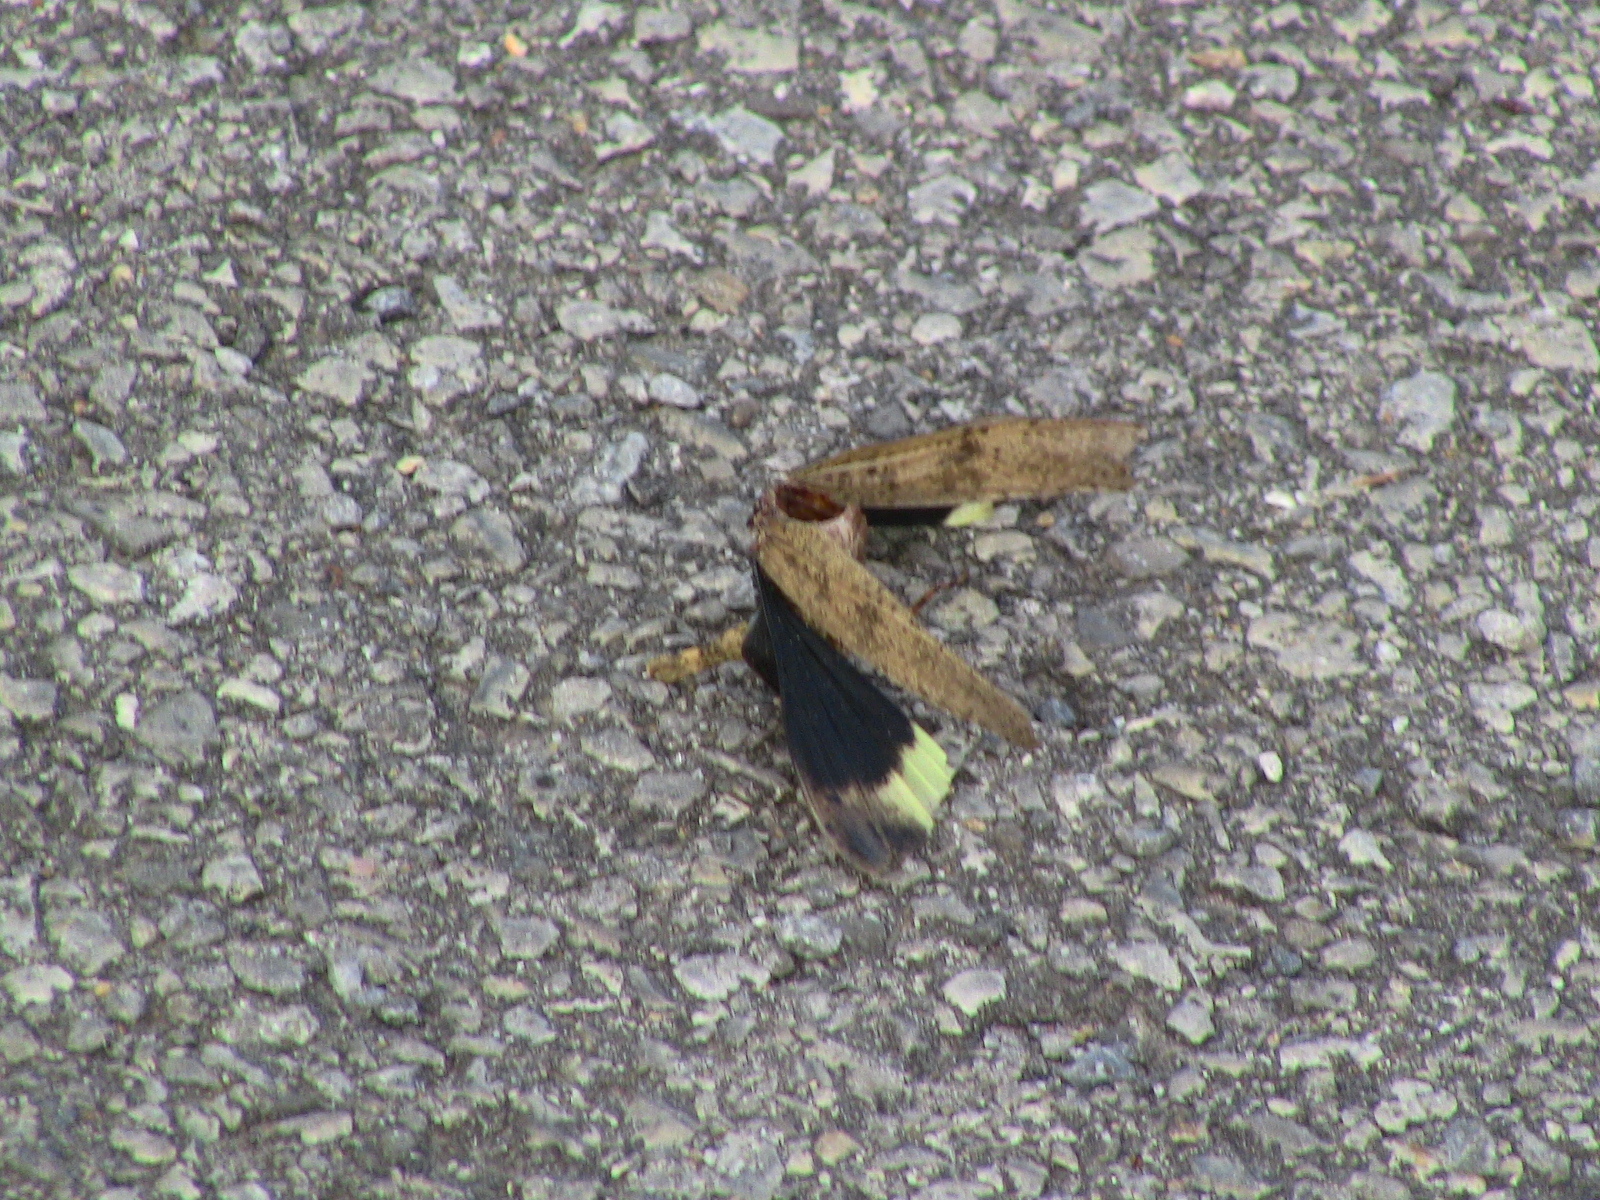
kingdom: Animalia
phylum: Arthropoda
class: Insecta
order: Orthoptera
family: Acrididae
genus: Dissosteira
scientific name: Dissosteira carolina
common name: Carolina grasshopper
